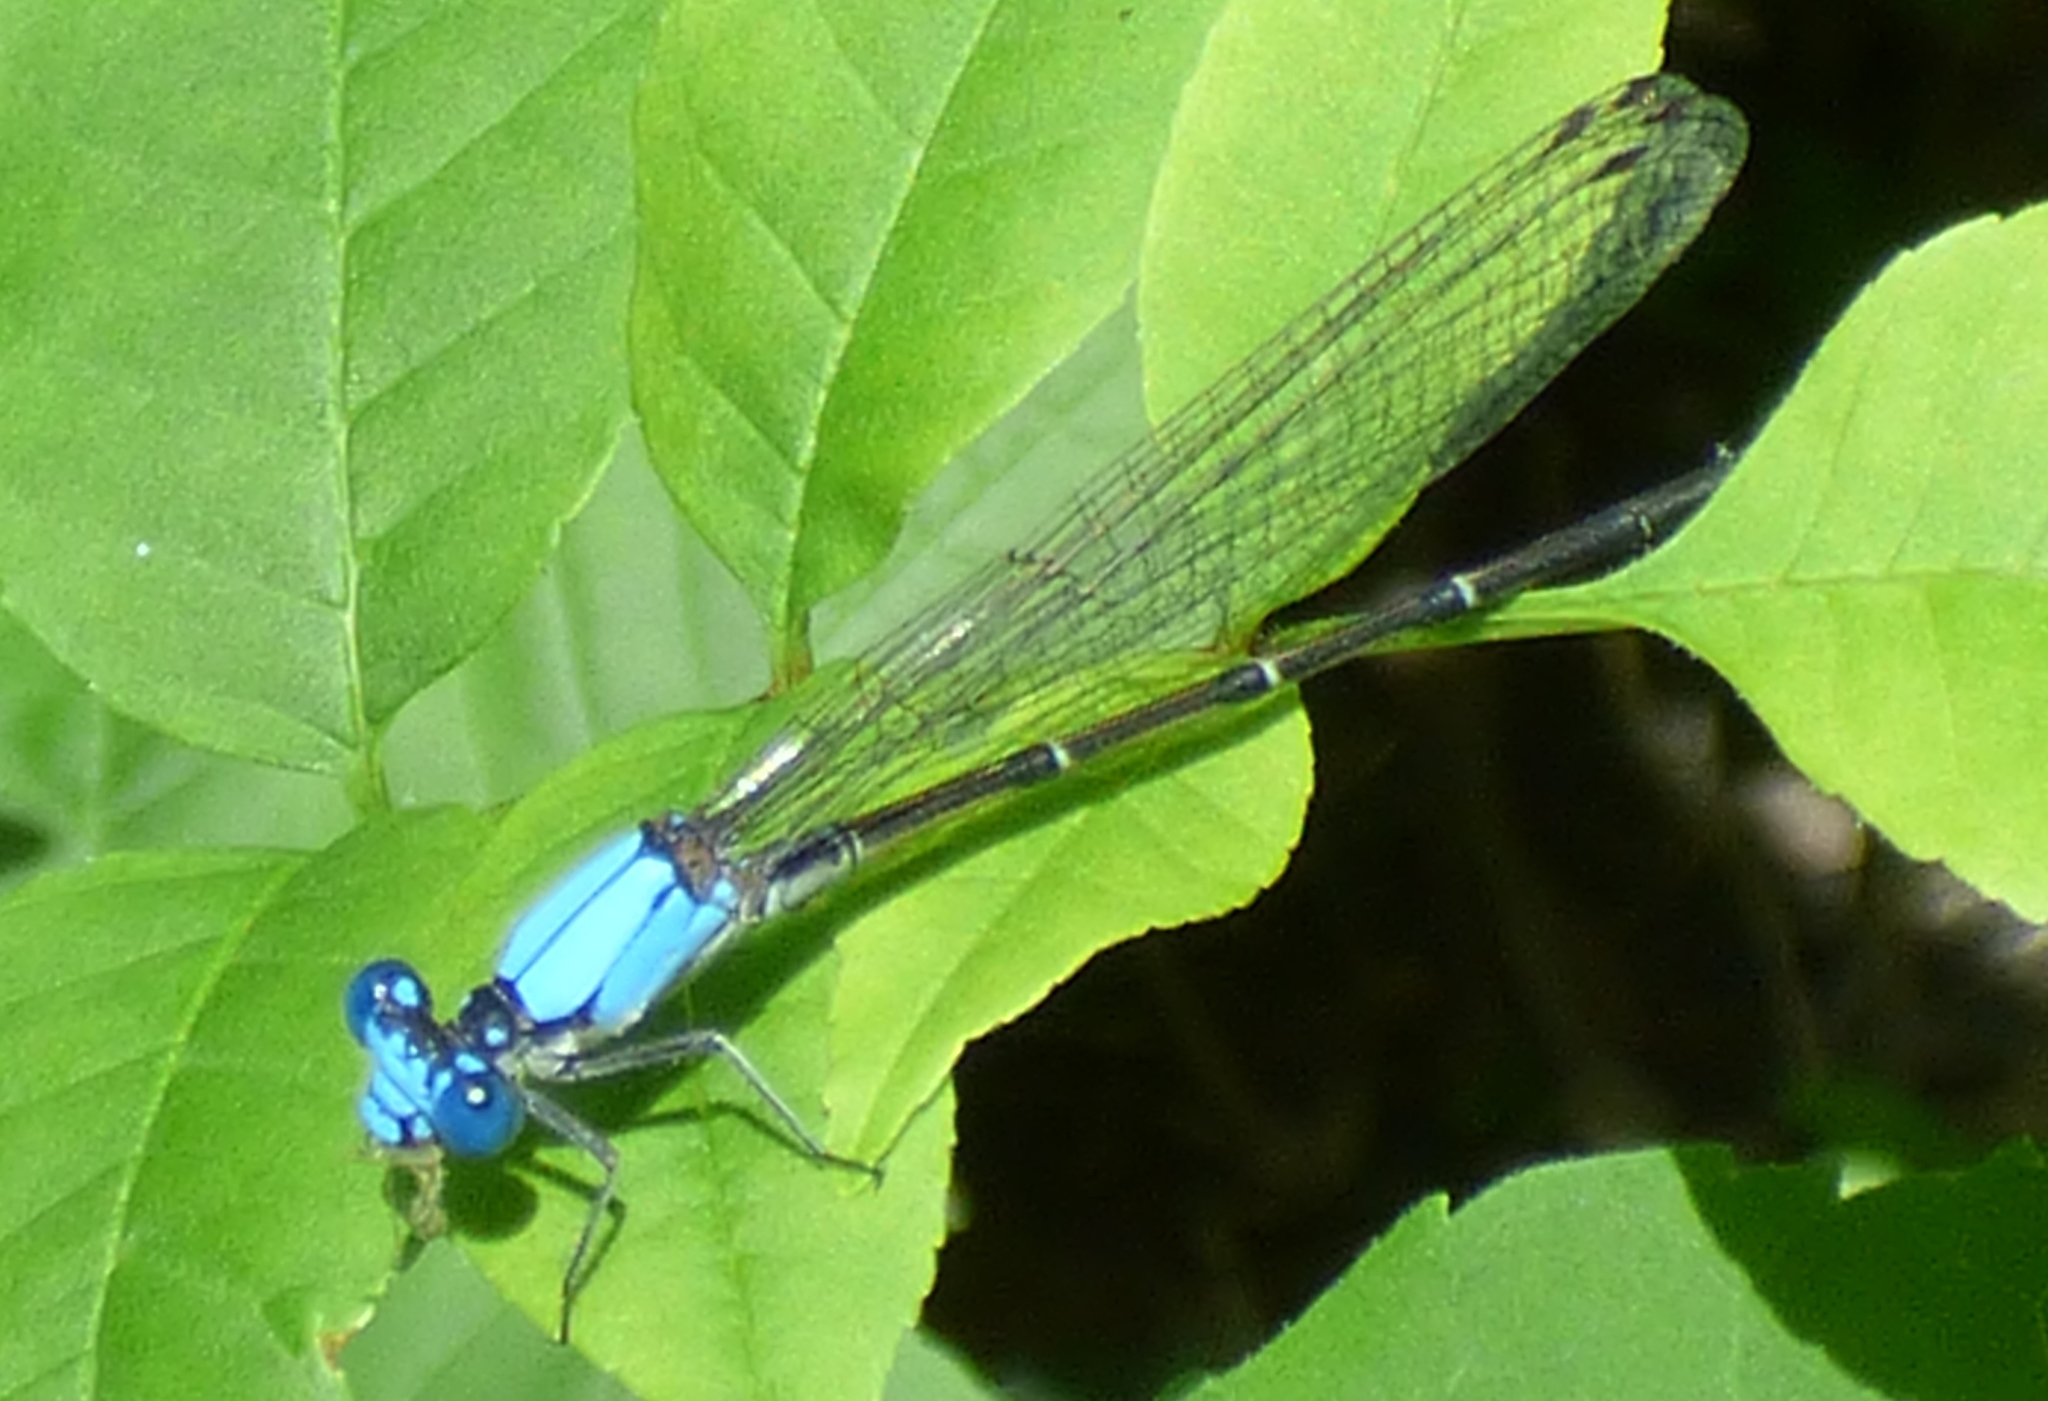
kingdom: Animalia
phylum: Arthropoda
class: Insecta
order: Odonata
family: Coenagrionidae
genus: Argia
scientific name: Argia apicalis
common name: Blue-fronted dancer
